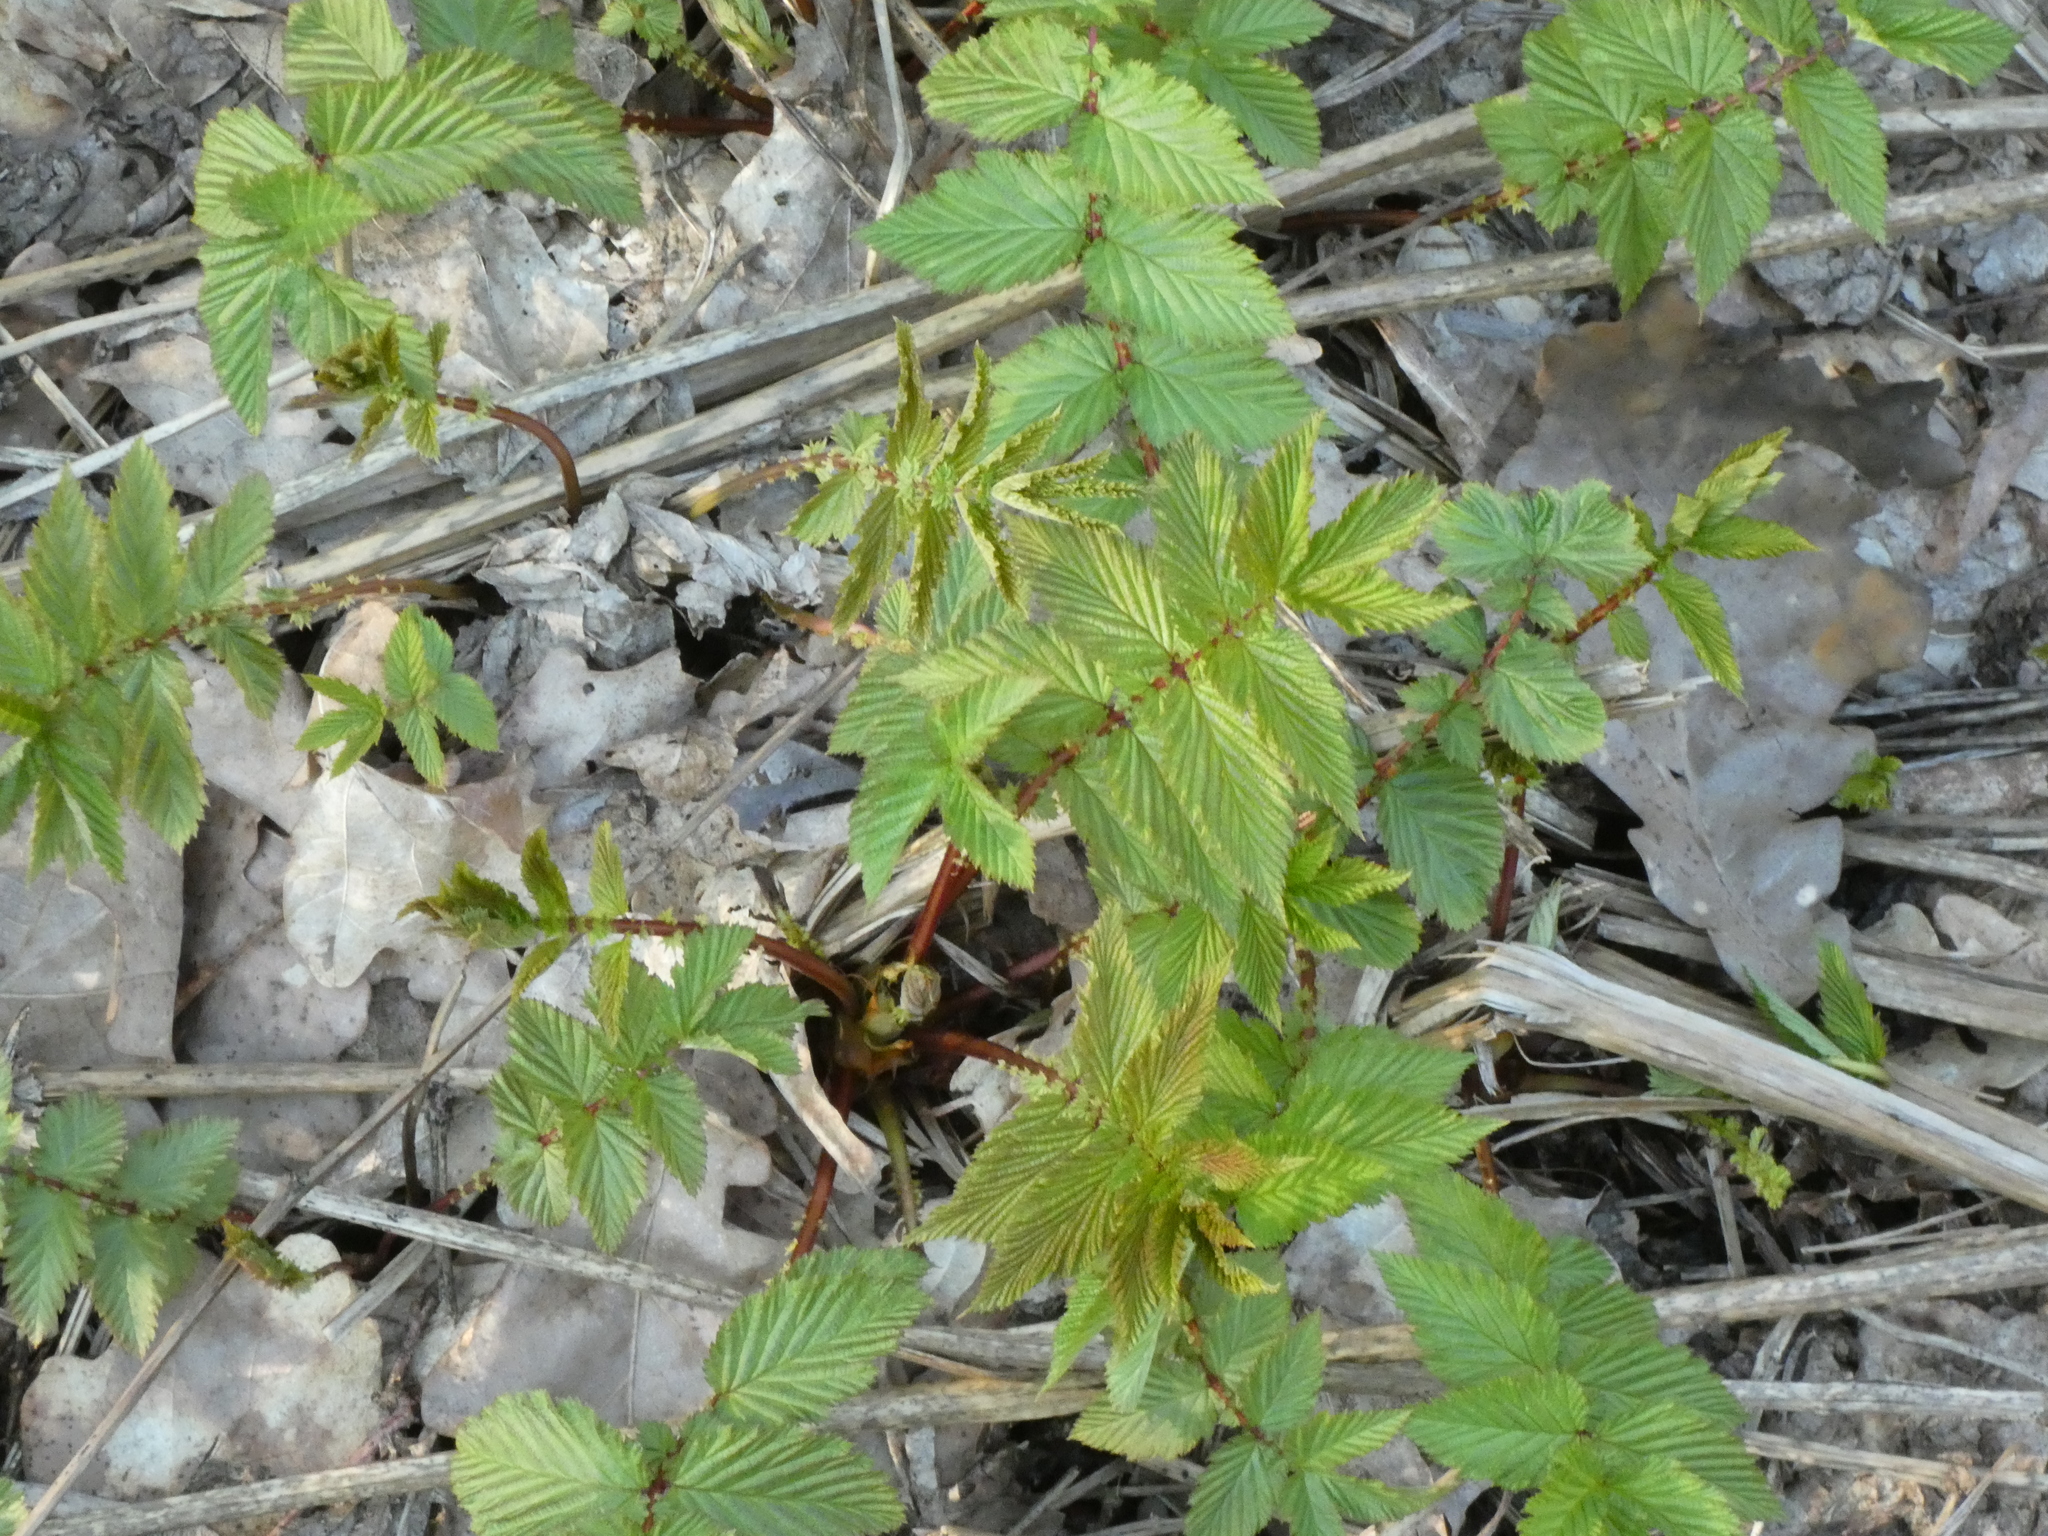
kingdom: Plantae
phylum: Tracheophyta
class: Magnoliopsida
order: Rosales
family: Rosaceae
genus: Filipendula
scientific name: Filipendula ulmaria
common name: Meadowsweet
